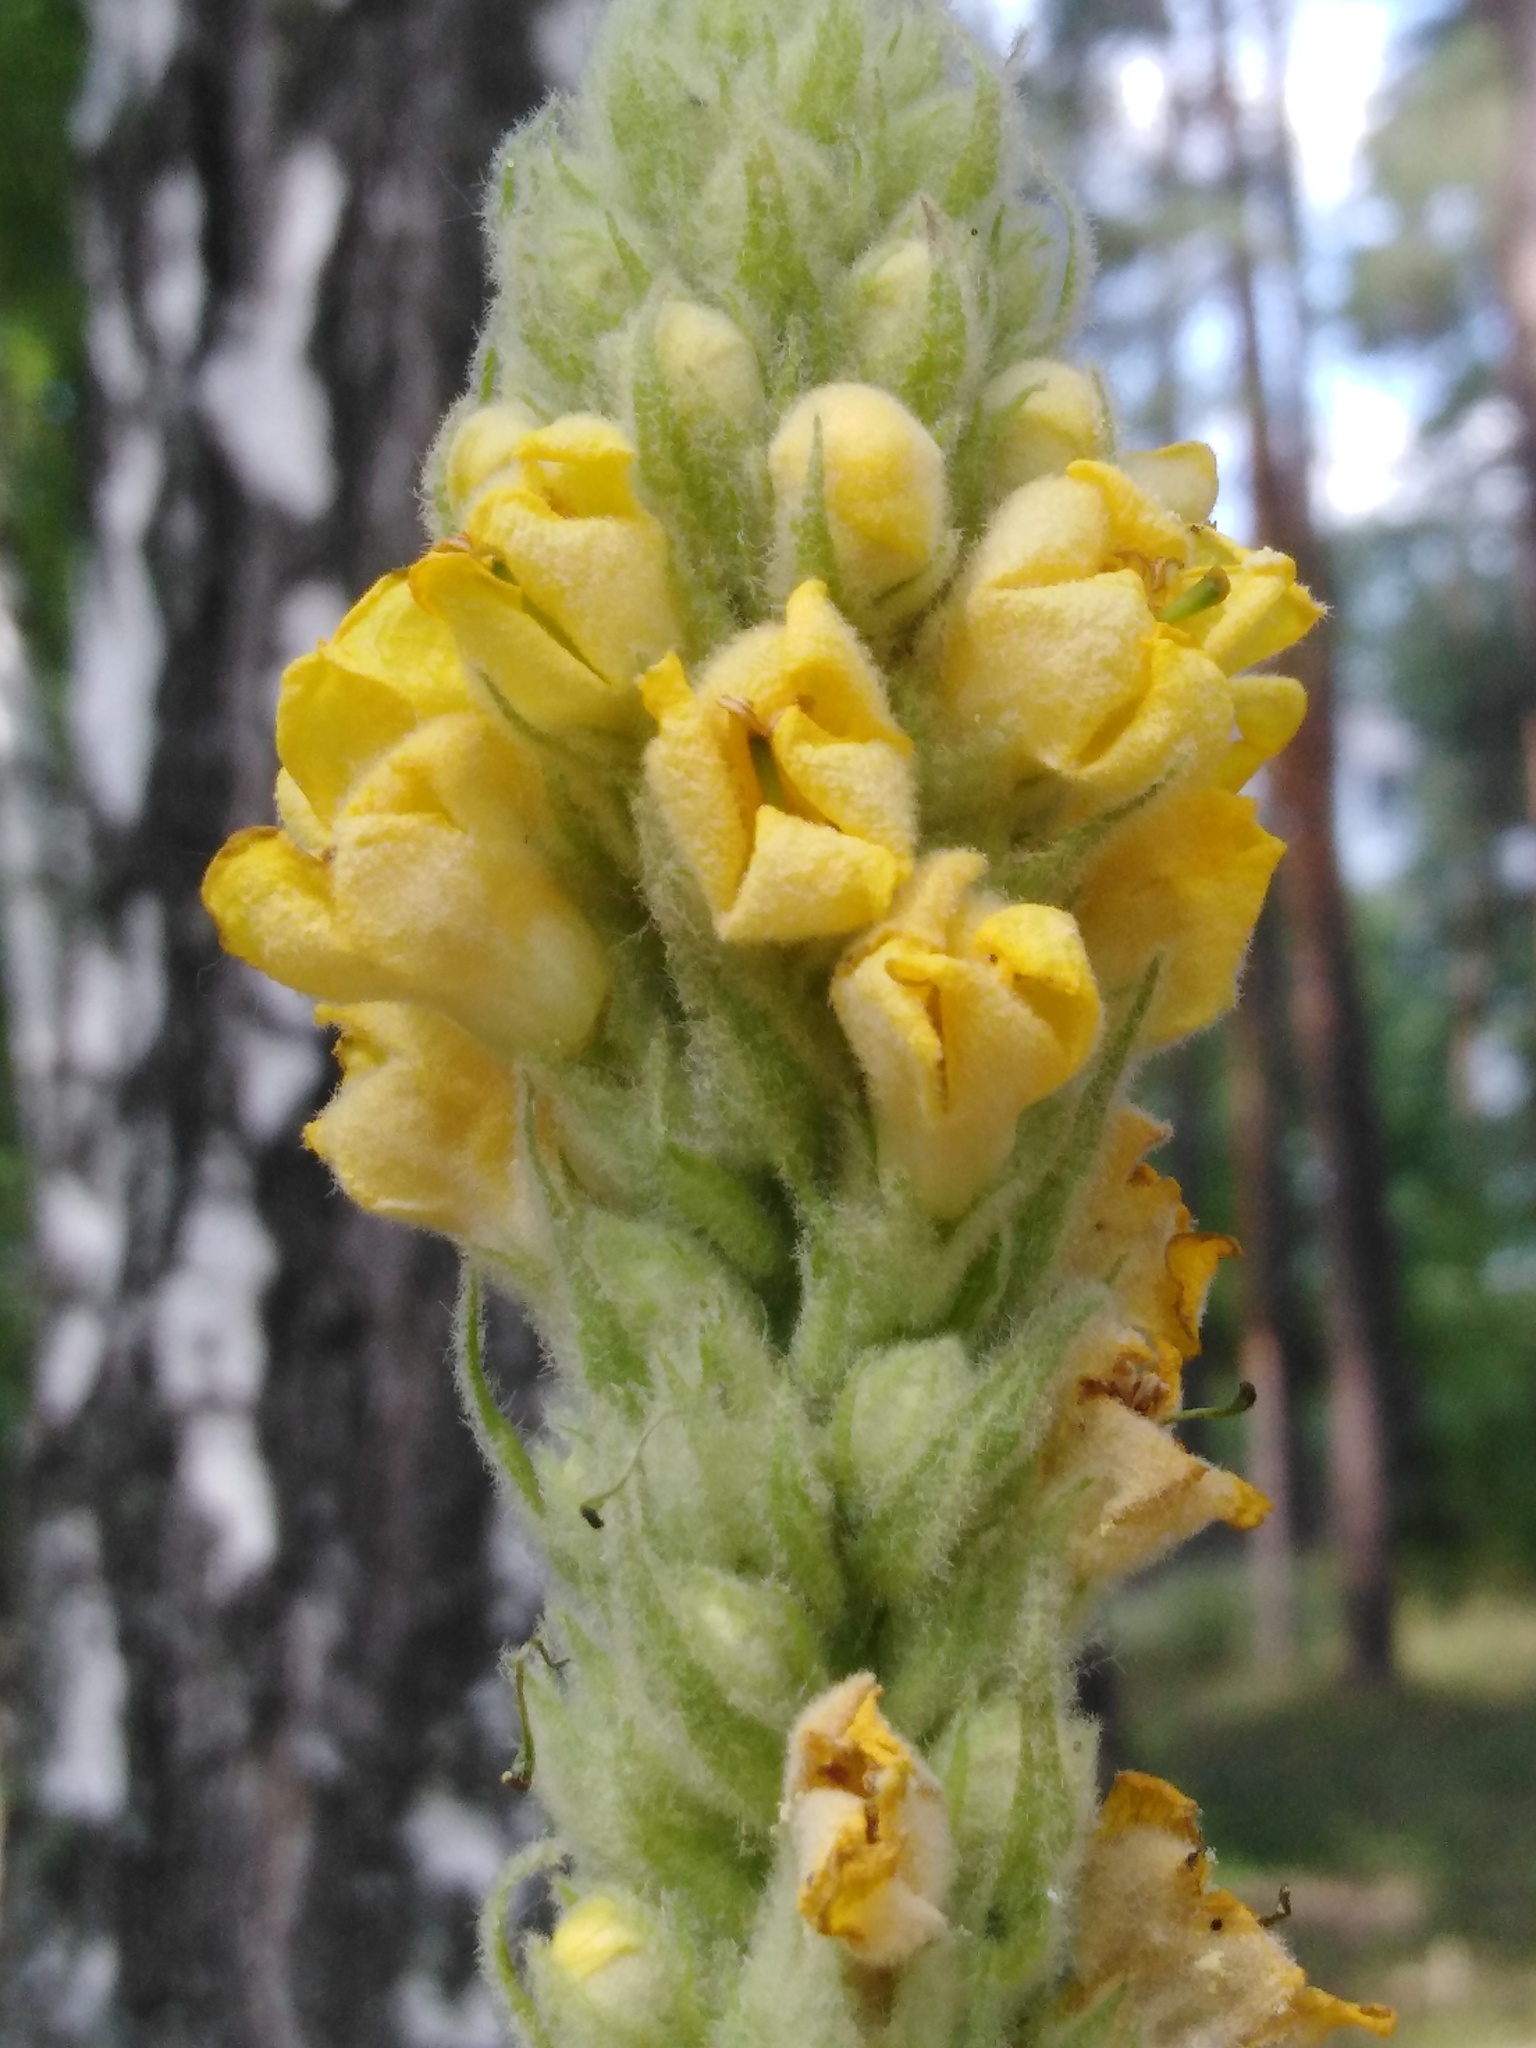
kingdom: Plantae
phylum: Tracheophyta
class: Magnoliopsida
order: Lamiales
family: Scrophulariaceae
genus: Verbascum
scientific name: Verbascum thapsus
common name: Common mullein
